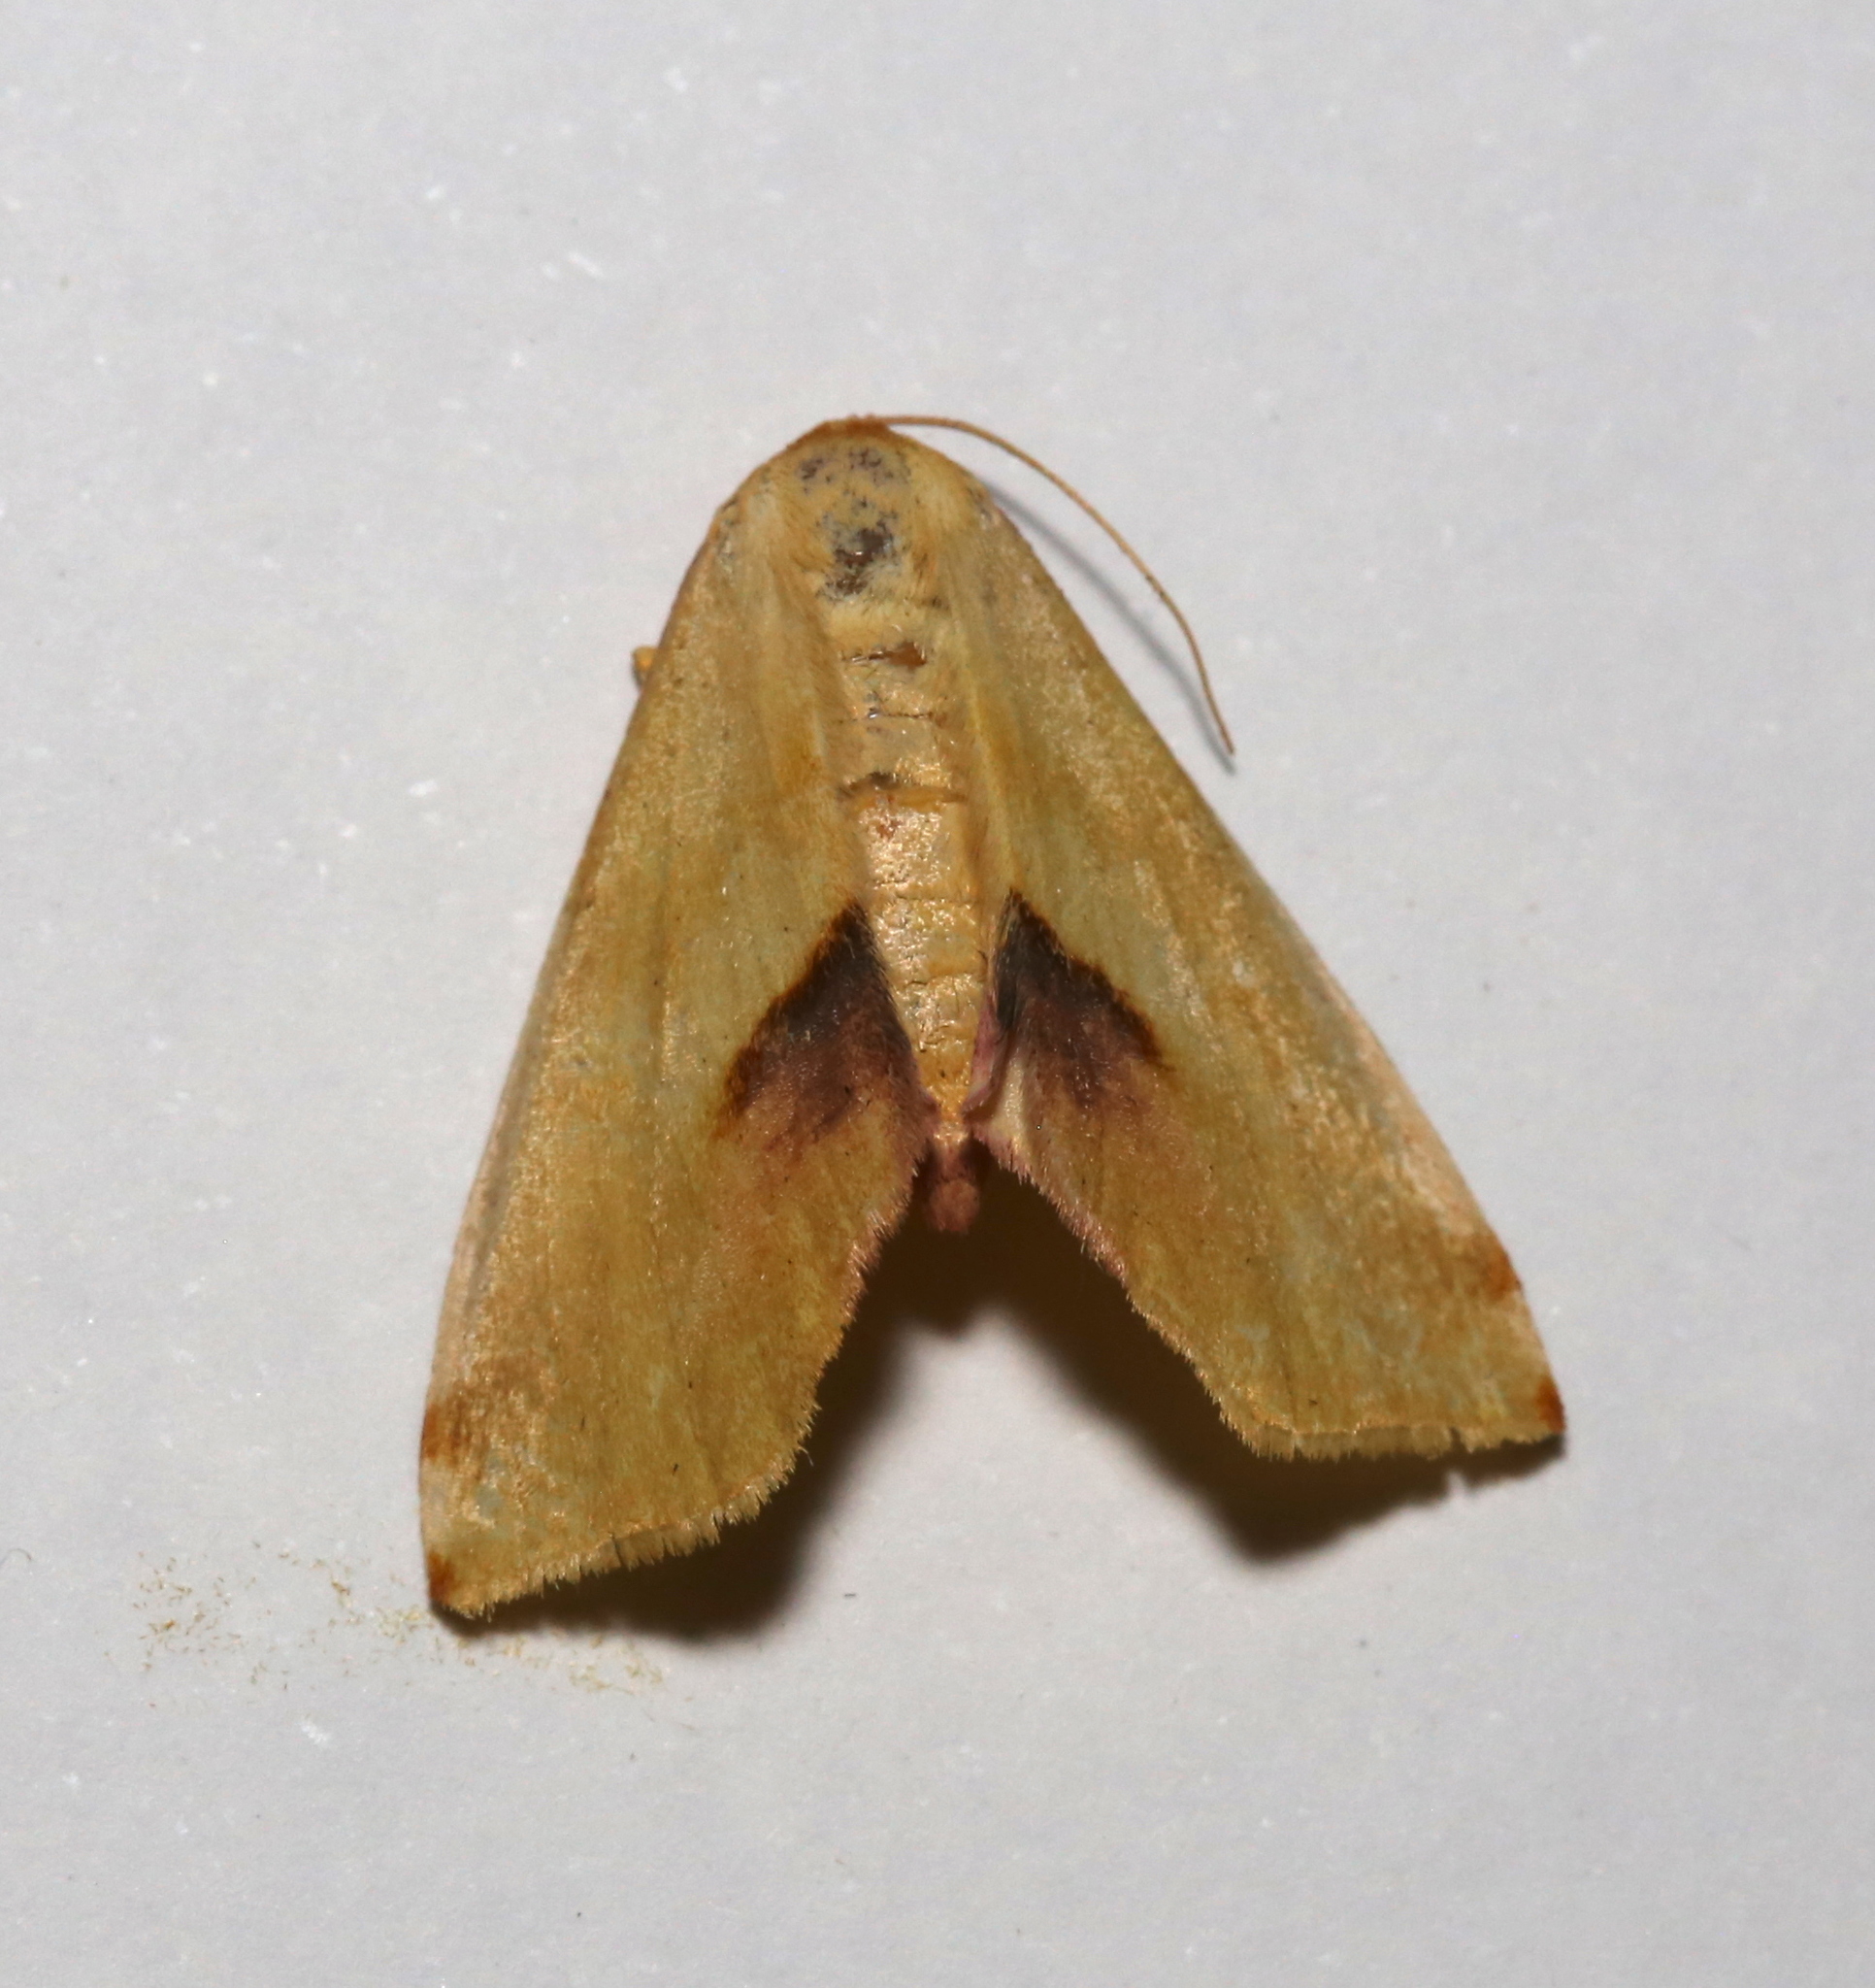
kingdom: Animalia
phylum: Arthropoda
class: Insecta
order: Lepidoptera
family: Geometridae
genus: Plagodis
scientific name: Plagodis serinaria
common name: Lemon plagodis
